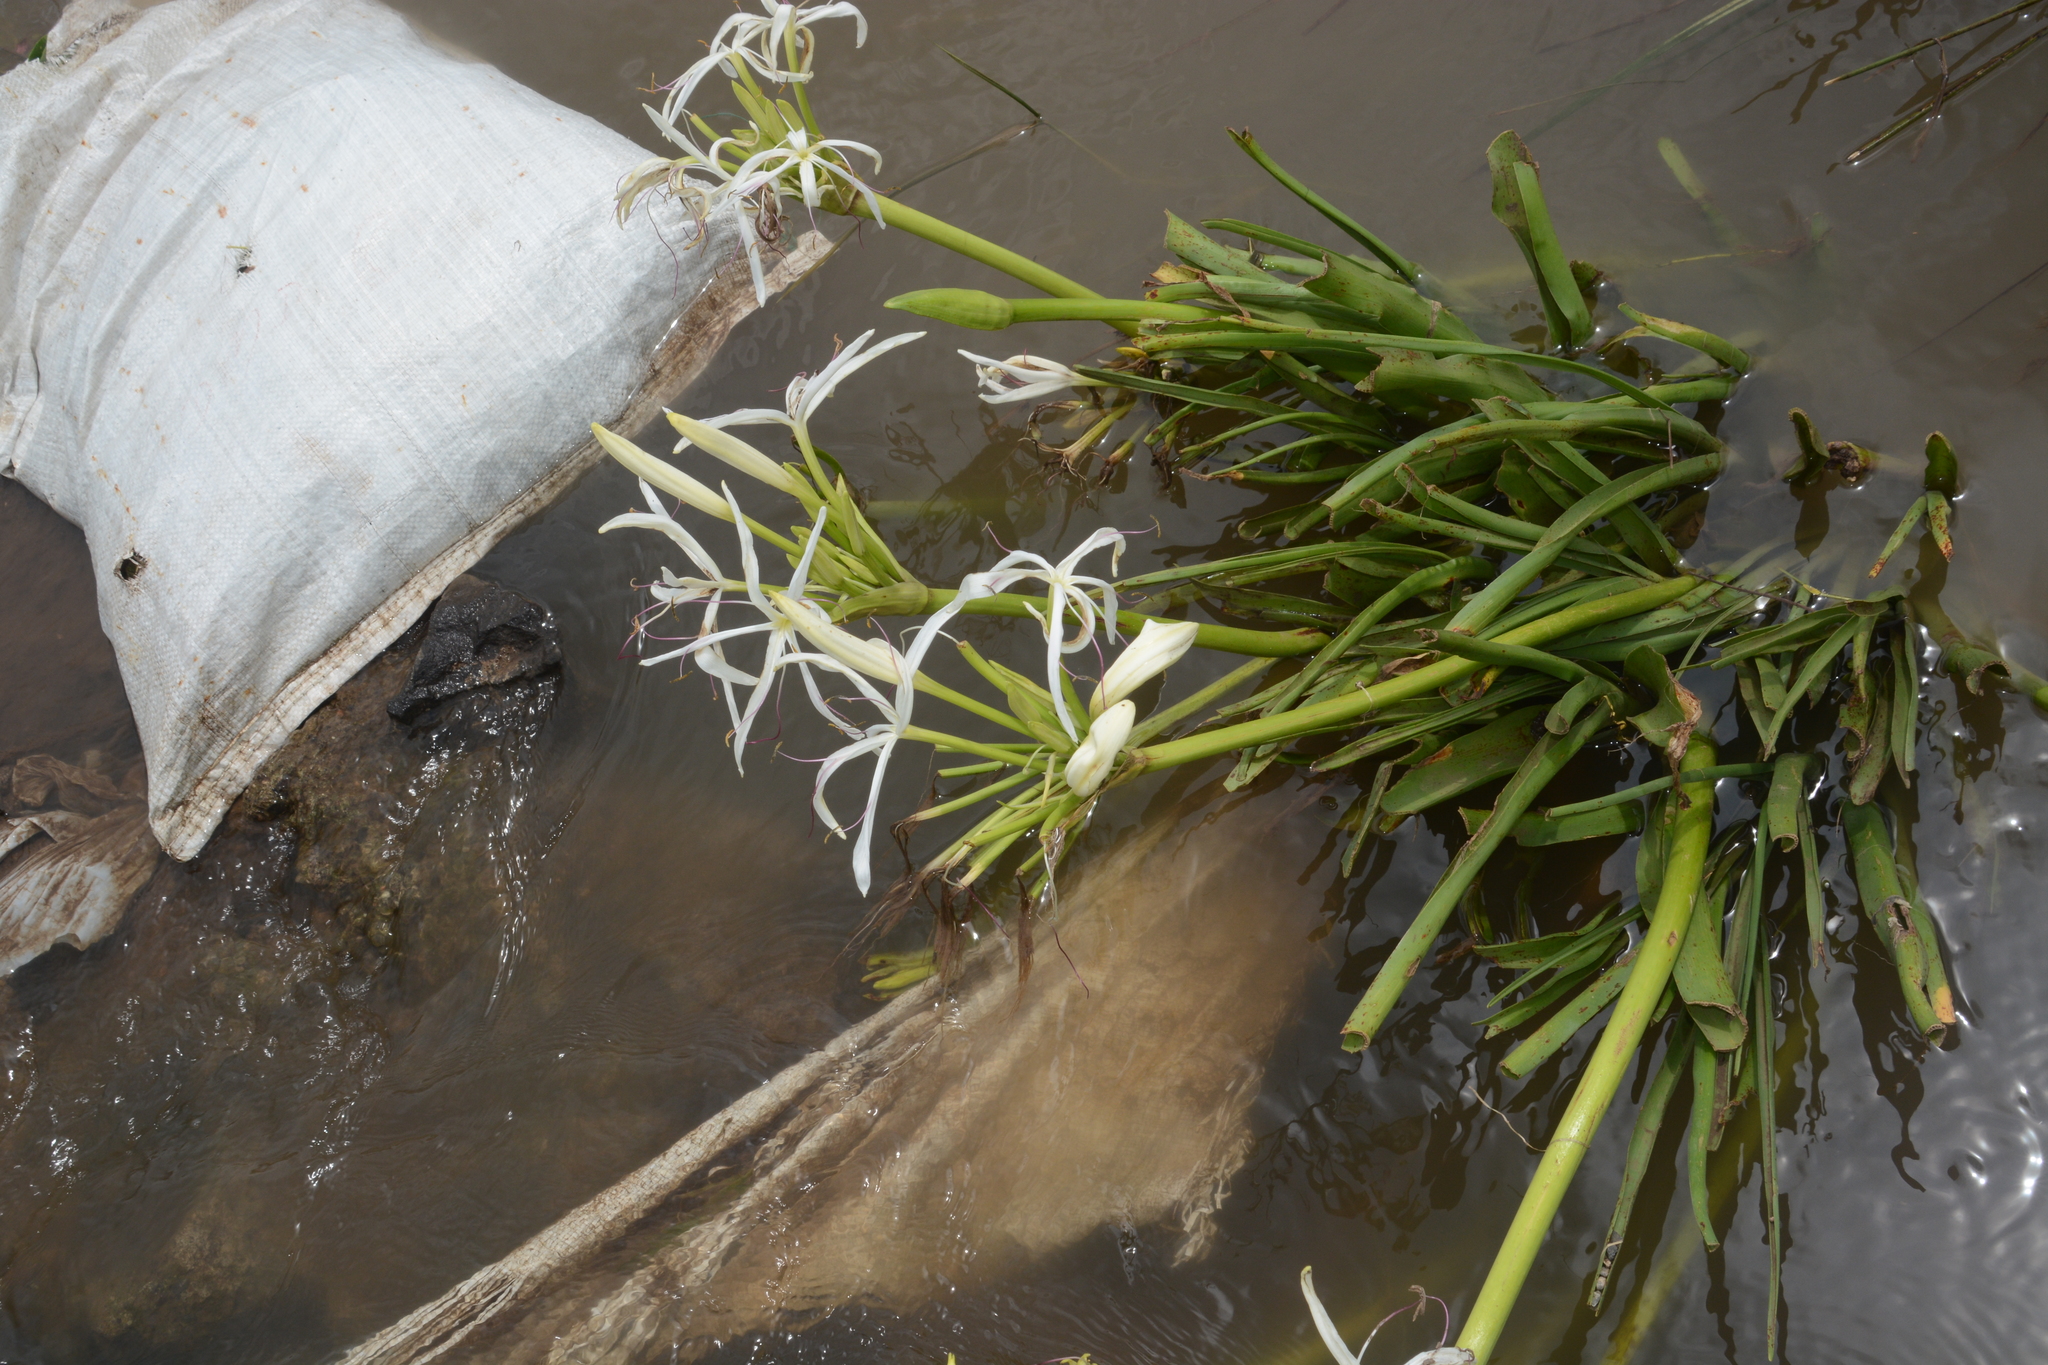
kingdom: Plantae
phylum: Tracheophyta
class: Liliopsida
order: Asparagales
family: Amaryllidaceae
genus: Crinum
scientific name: Crinum bulbispermum
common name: Hardy swamplily
